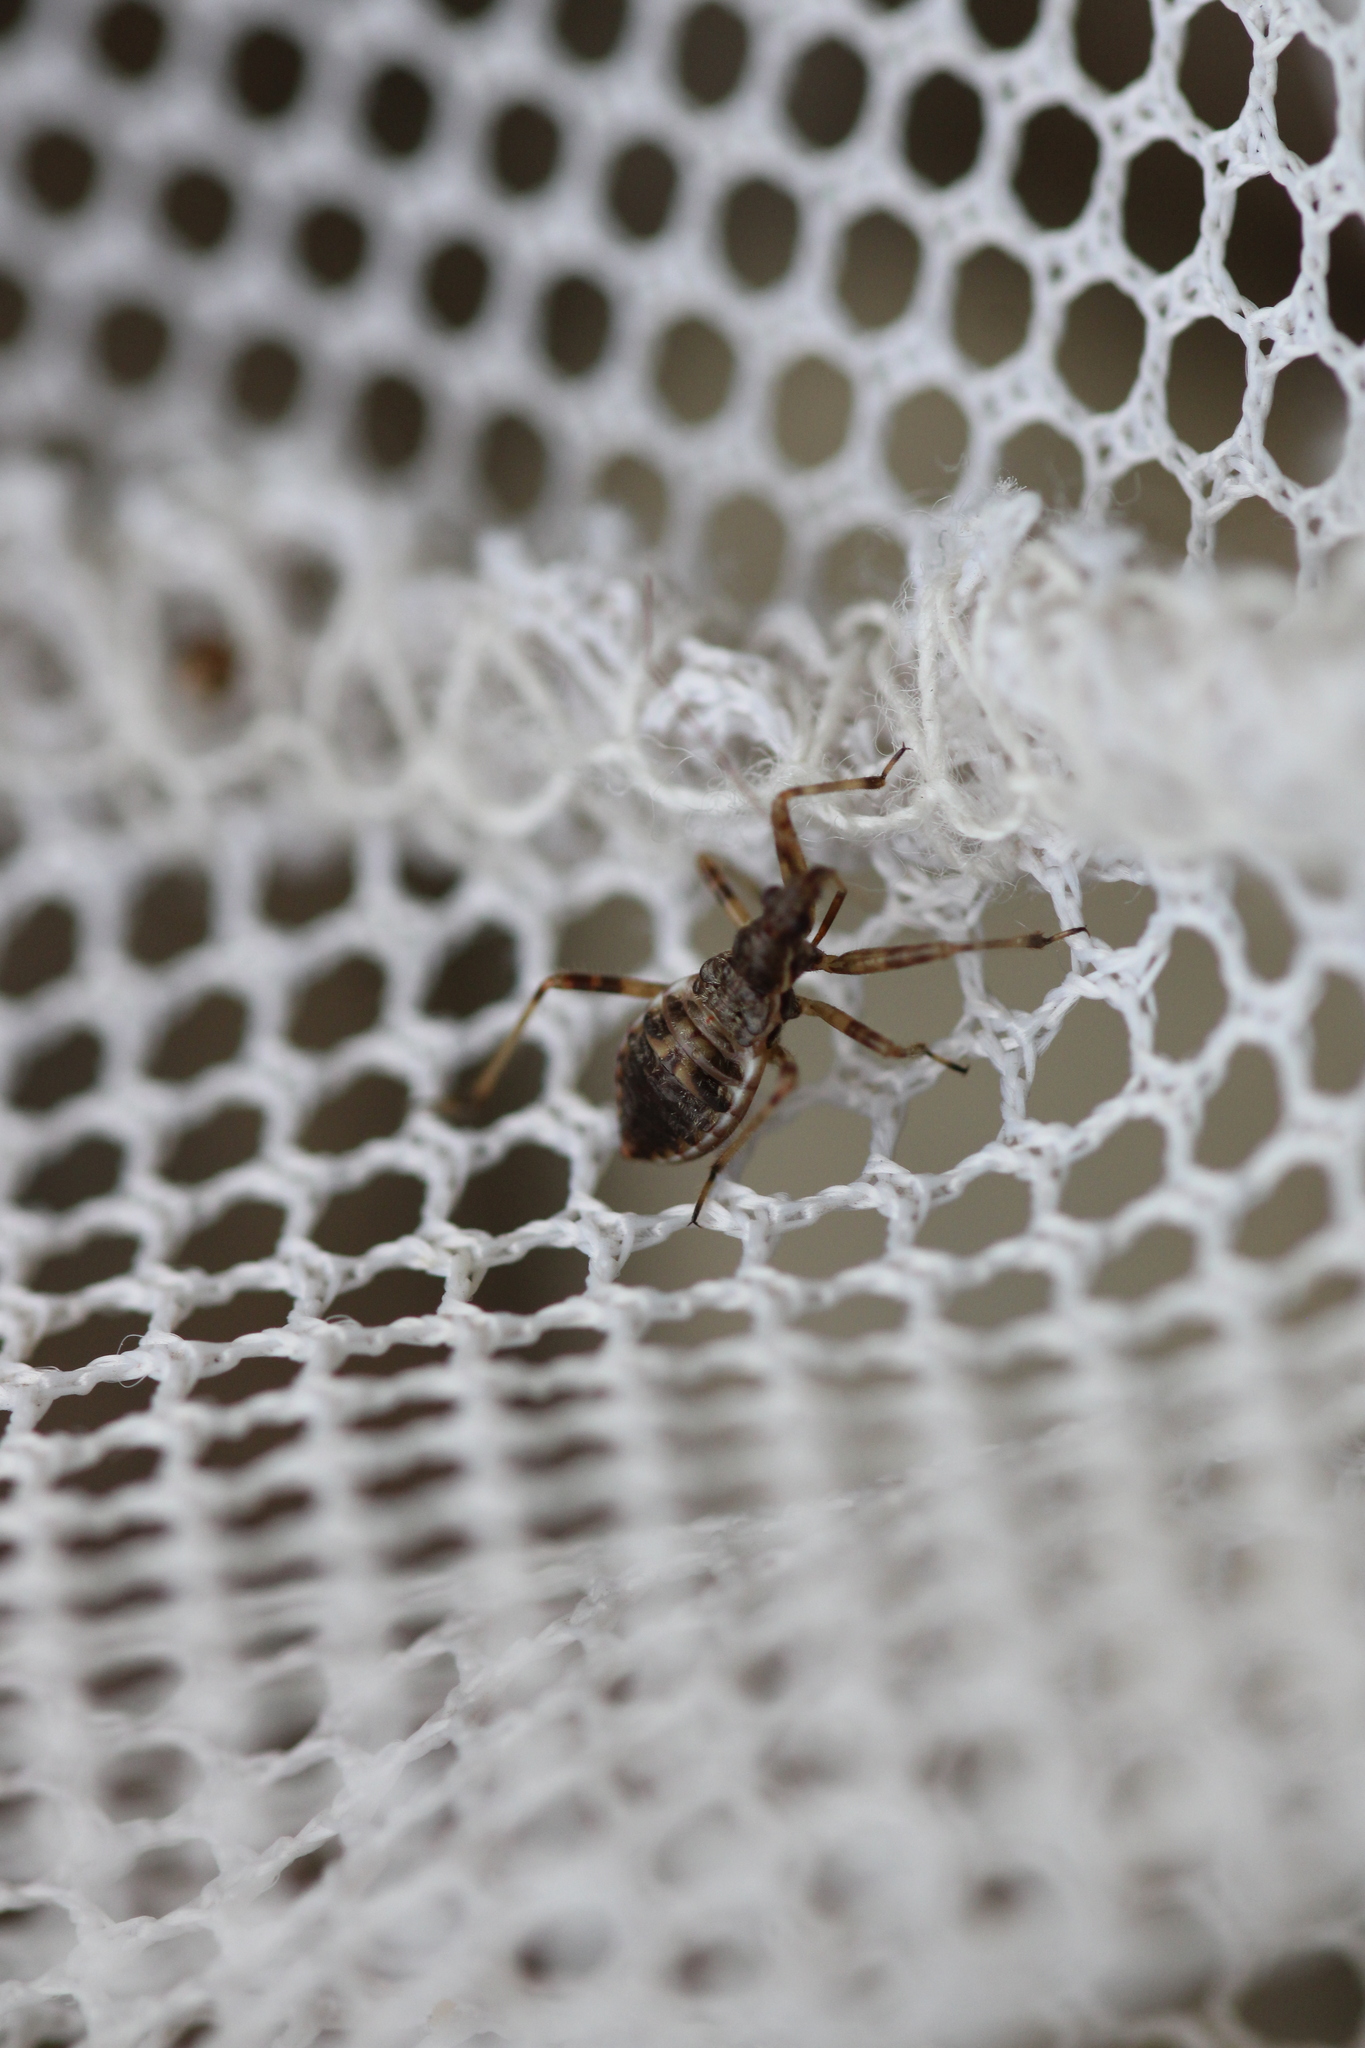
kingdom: Animalia
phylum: Arthropoda
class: Insecta
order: Hemiptera
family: Nabidae
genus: Himacerus
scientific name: Himacerus apterus
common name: Tree damsel bug
